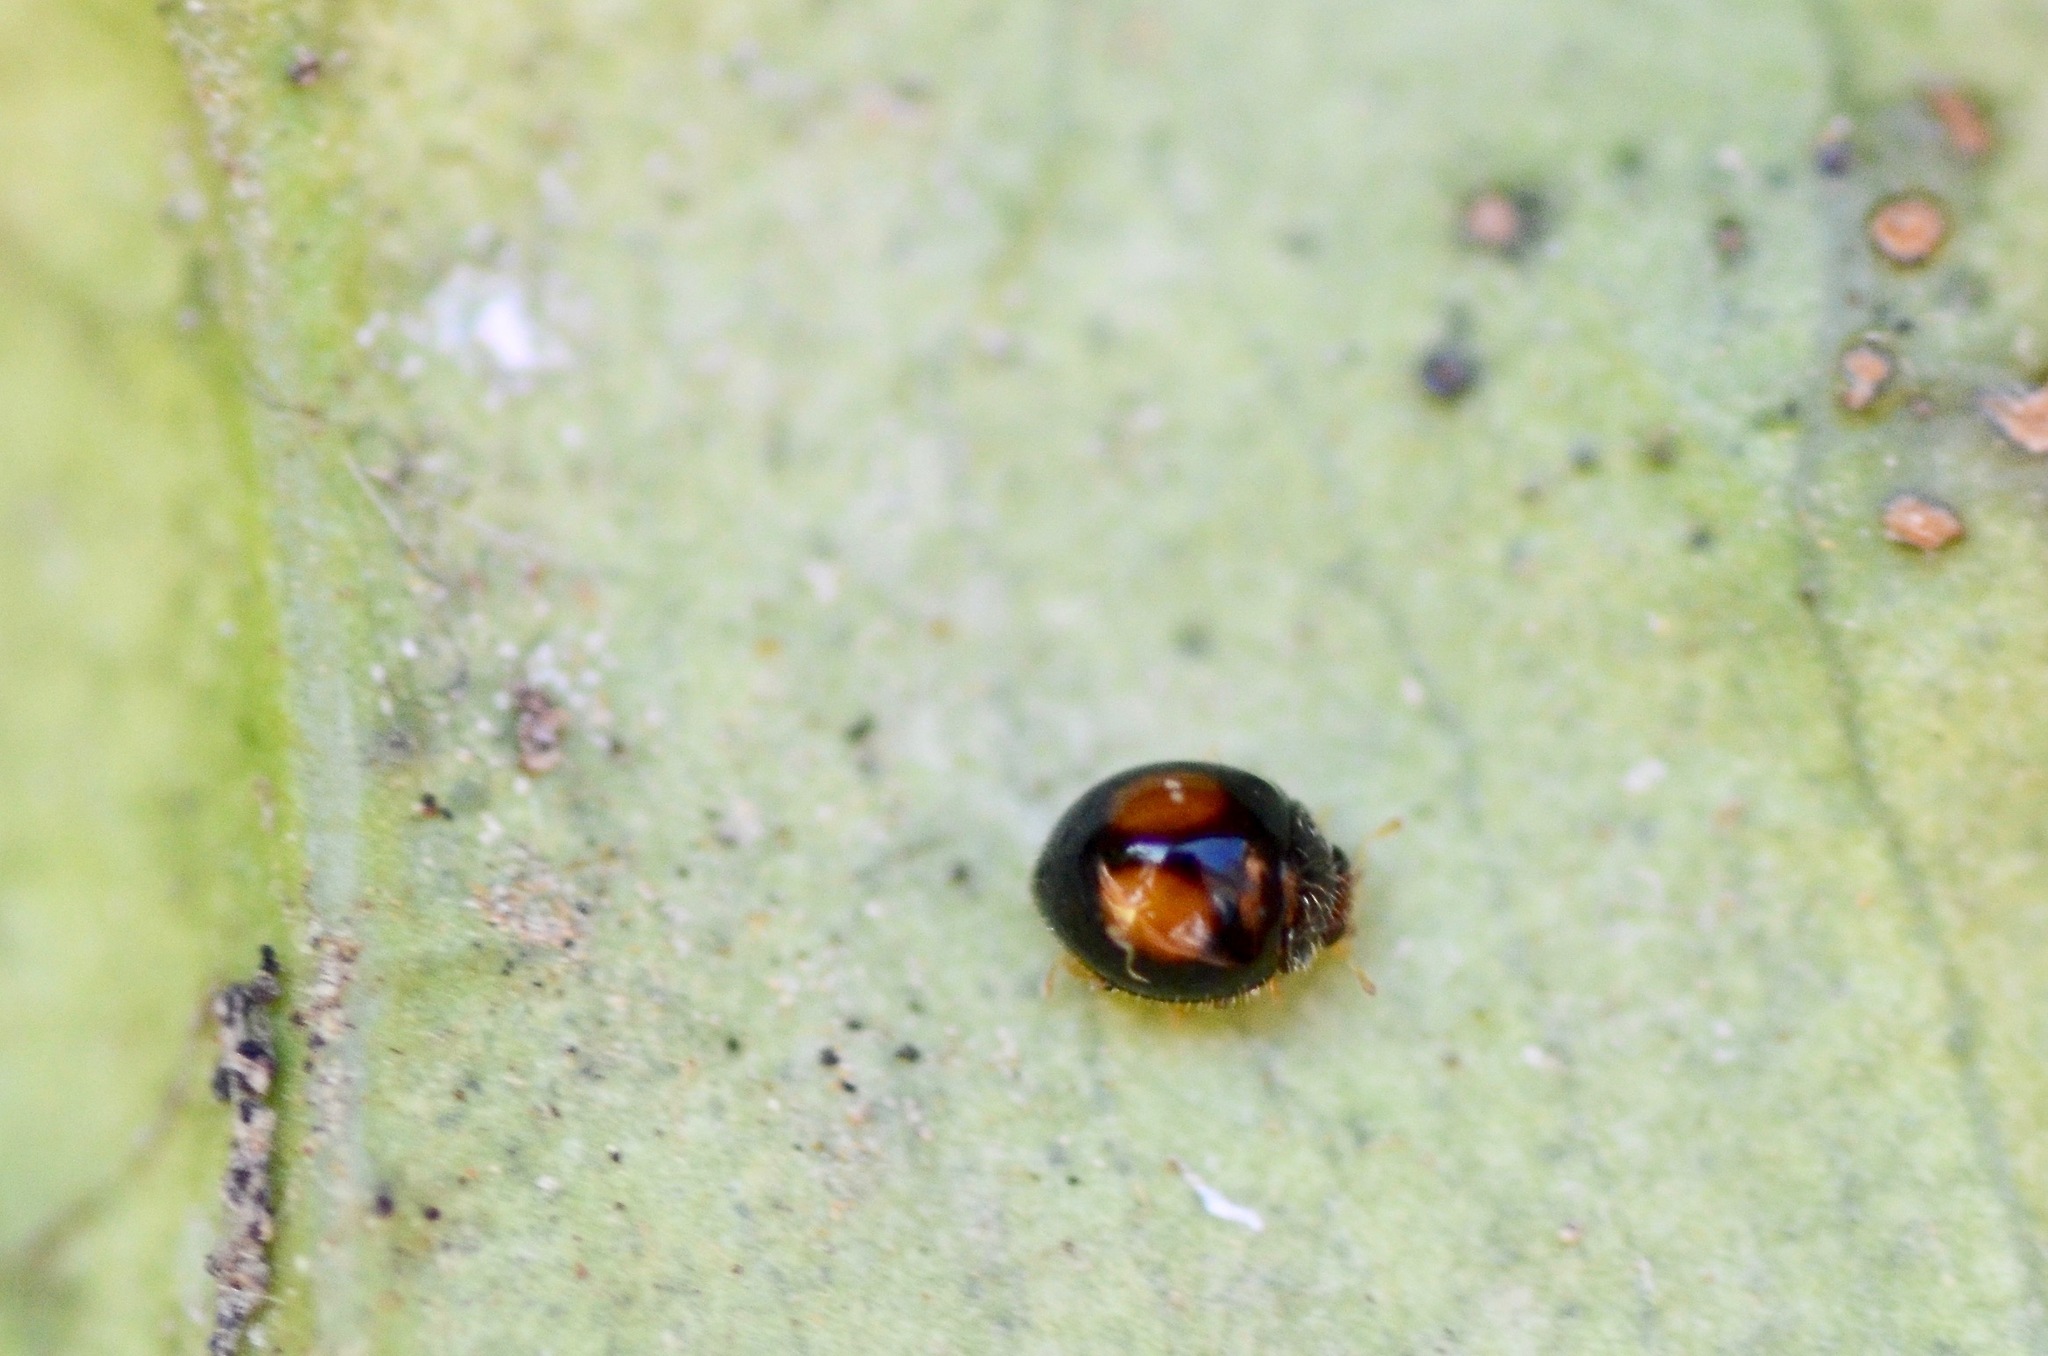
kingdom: Animalia
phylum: Arthropoda
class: Insecta
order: Coleoptera
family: Coccinellidae
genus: Serangium
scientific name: Serangium maculigerum
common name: Lady beetle
